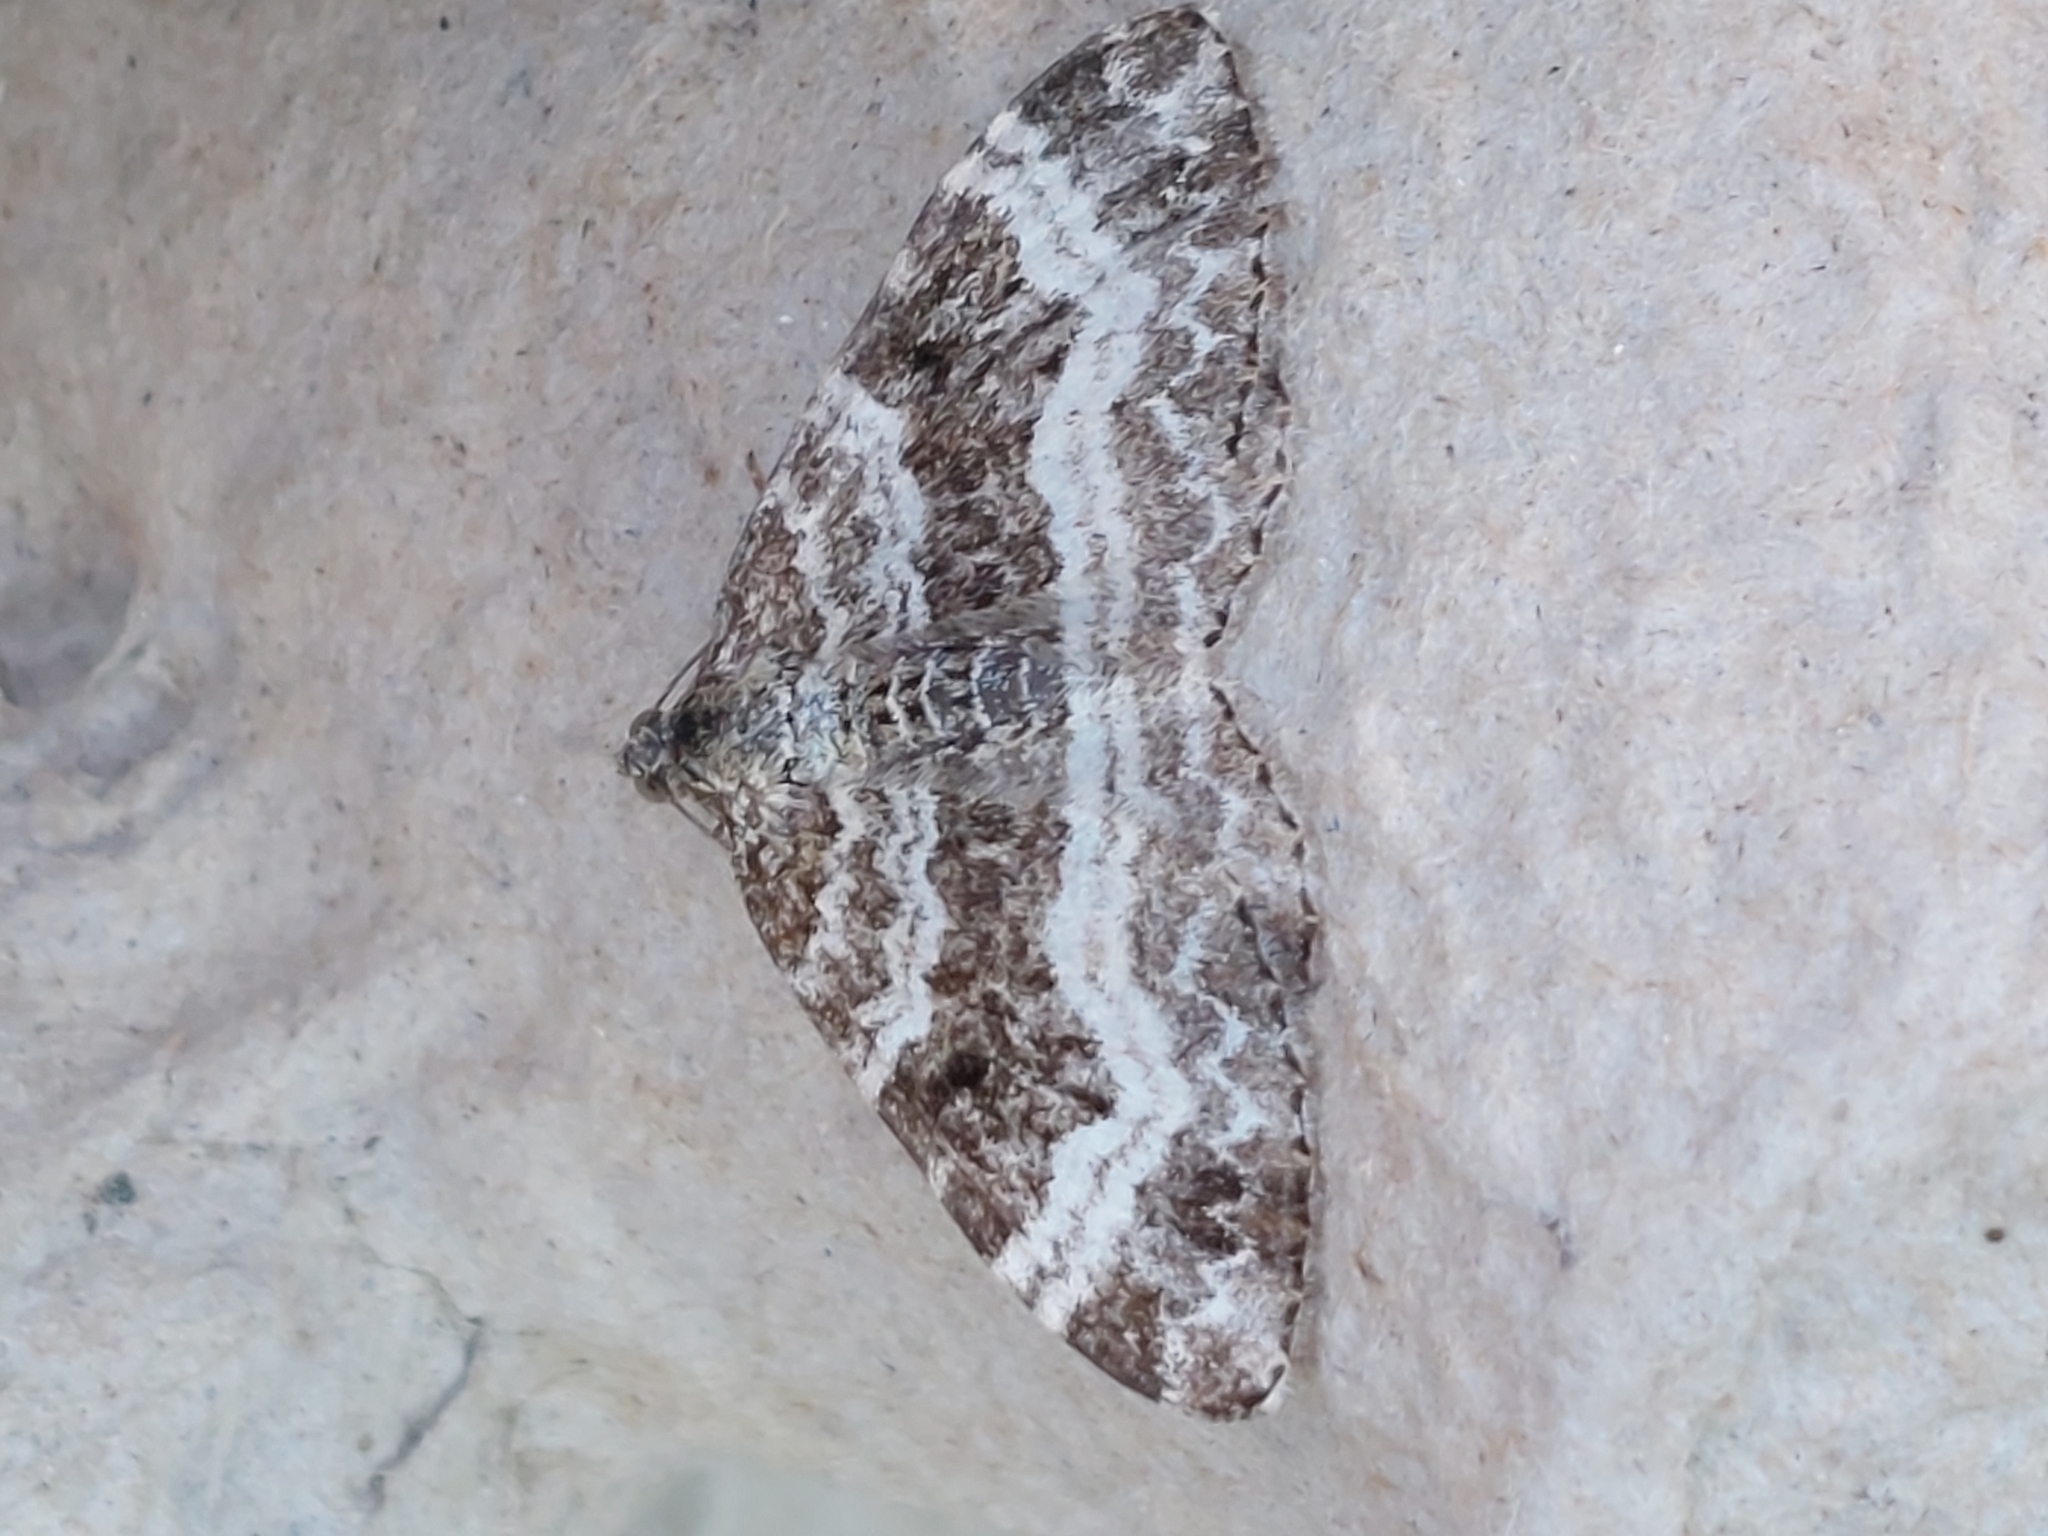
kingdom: Animalia
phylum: Arthropoda
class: Insecta
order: Lepidoptera
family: Geometridae
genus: Epirrhoe
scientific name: Epirrhoe alternata
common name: Common carpet
